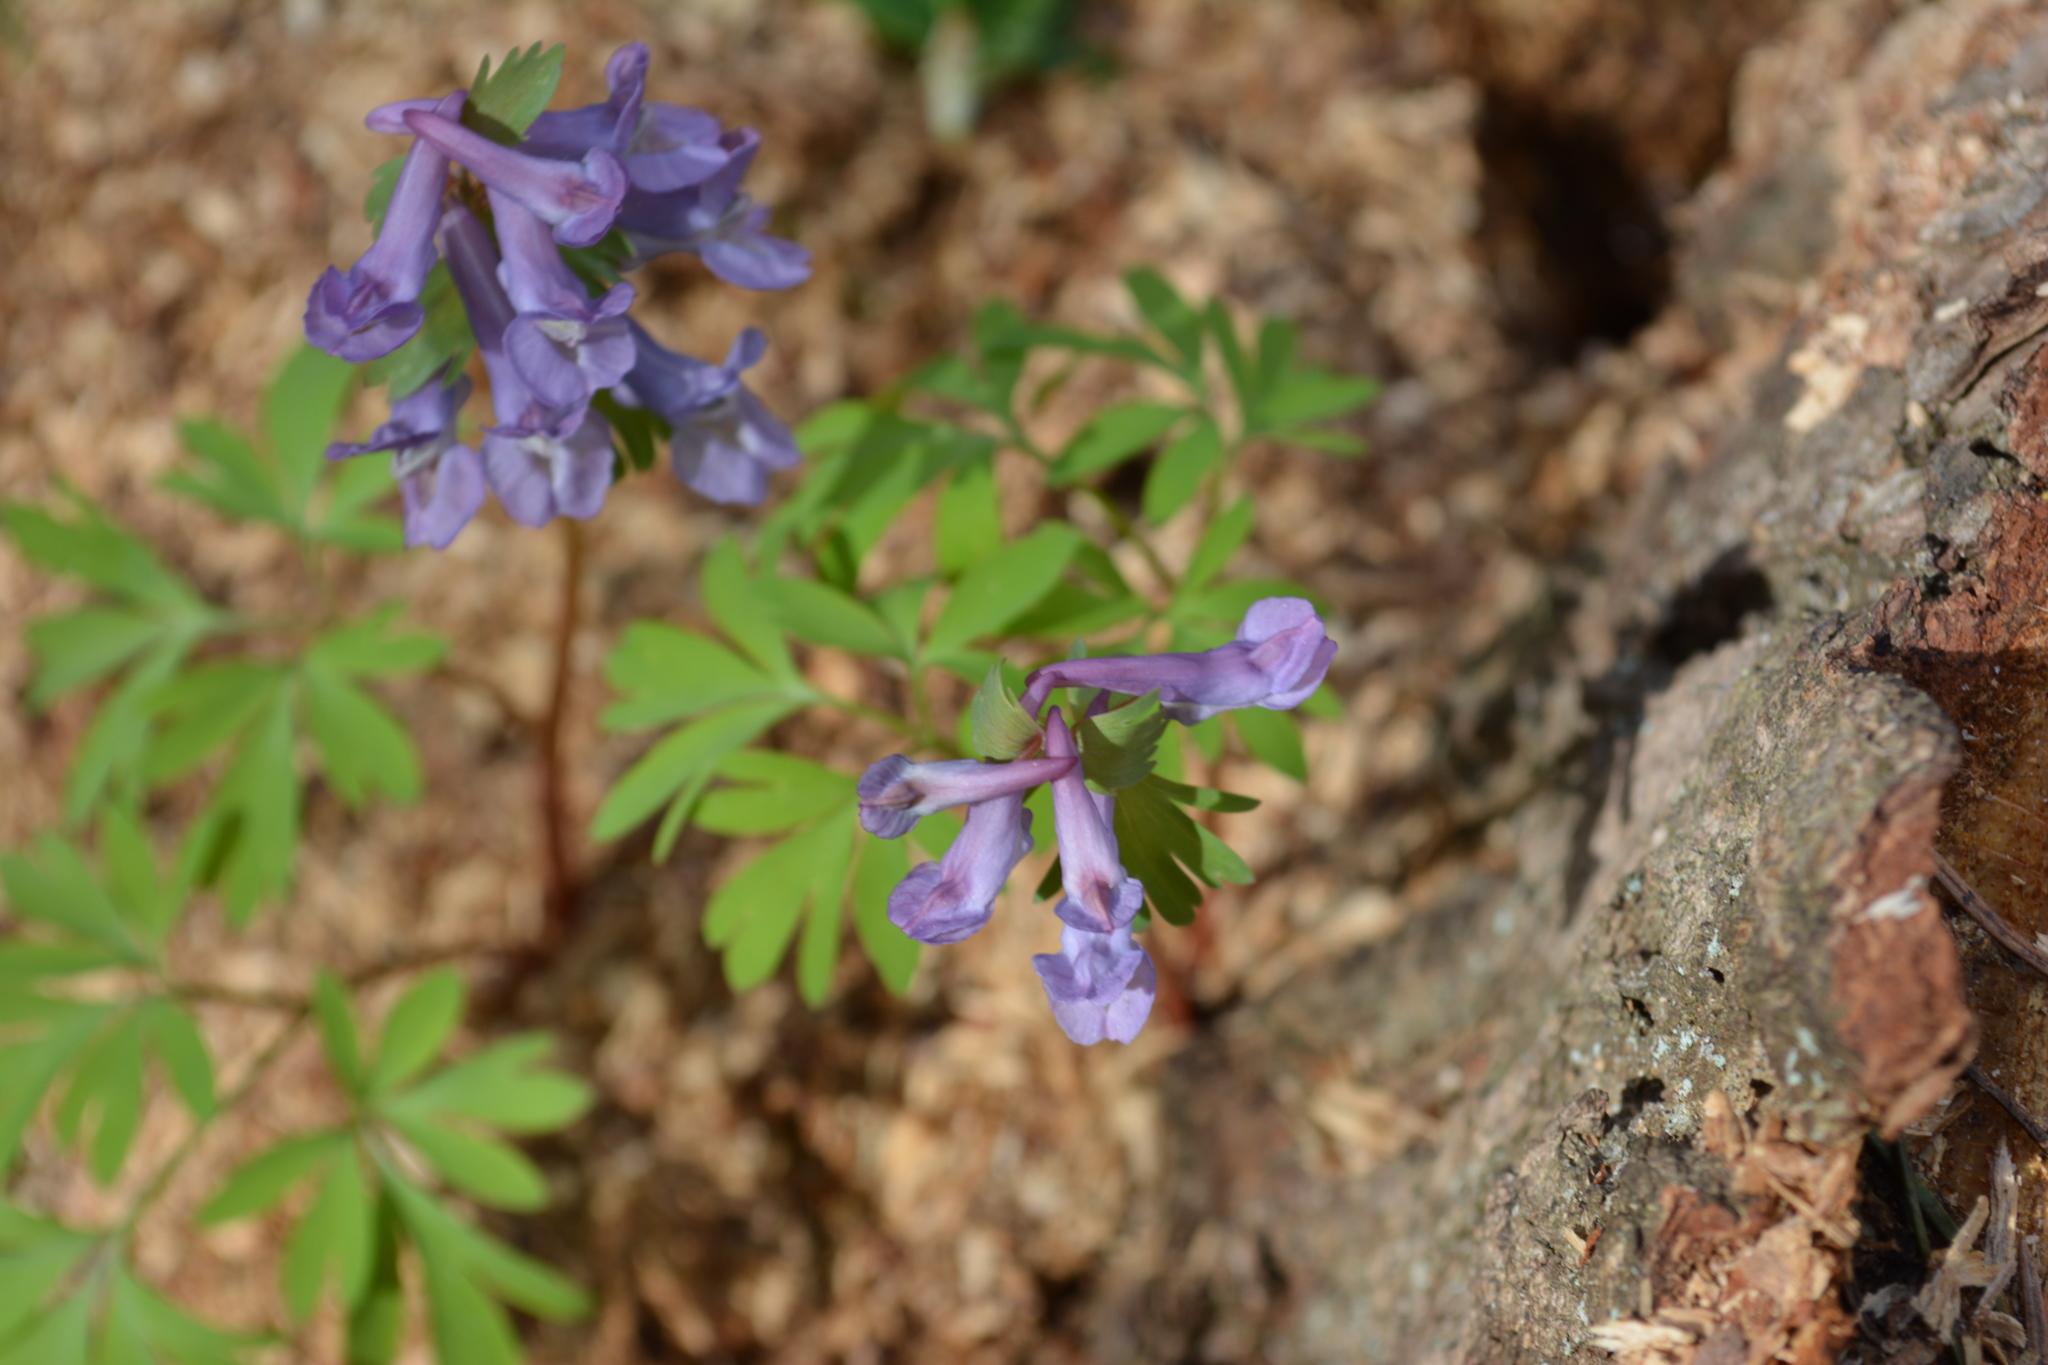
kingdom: Plantae
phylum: Tracheophyta
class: Magnoliopsida
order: Ranunculales
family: Papaveraceae
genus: Corydalis
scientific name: Corydalis solida
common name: Bird-in-a-bush
